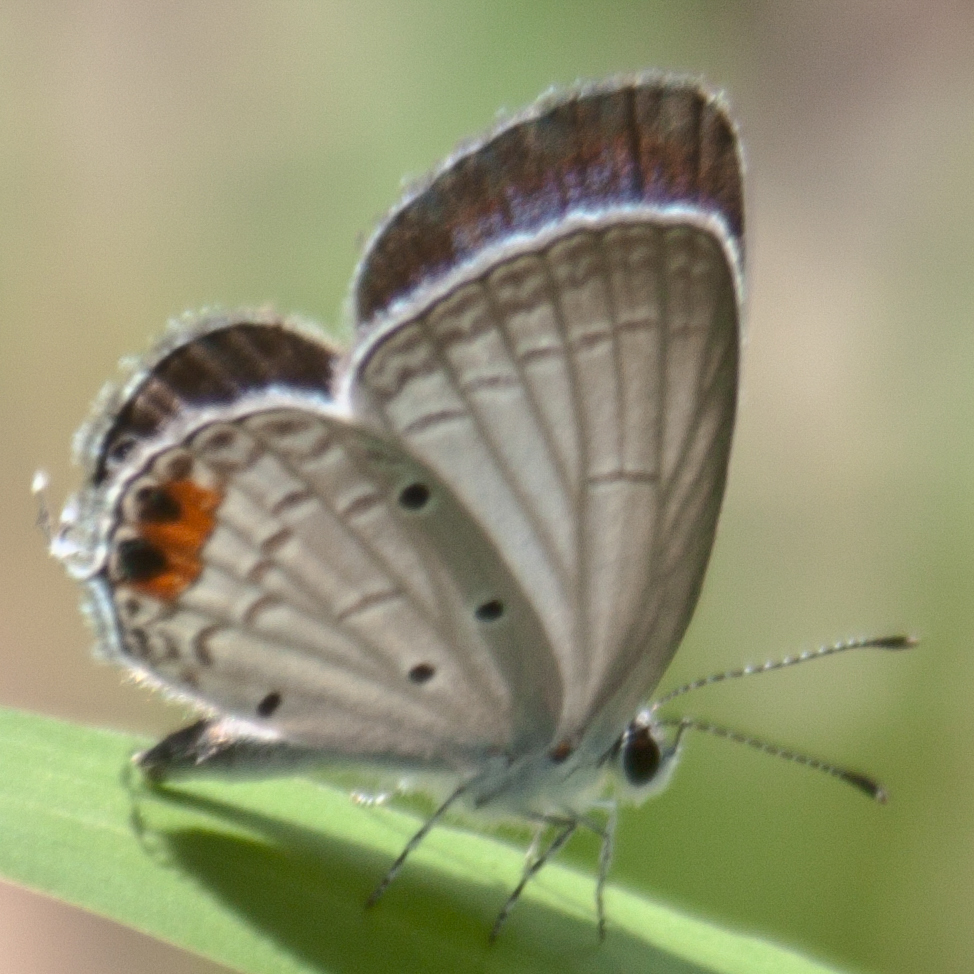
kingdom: Animalia
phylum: Arthropoda
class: Insecta
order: Lepidoptera
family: Lycaenidae
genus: Everes
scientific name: Everes lacturnus
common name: Orange-tipped pea-blue
